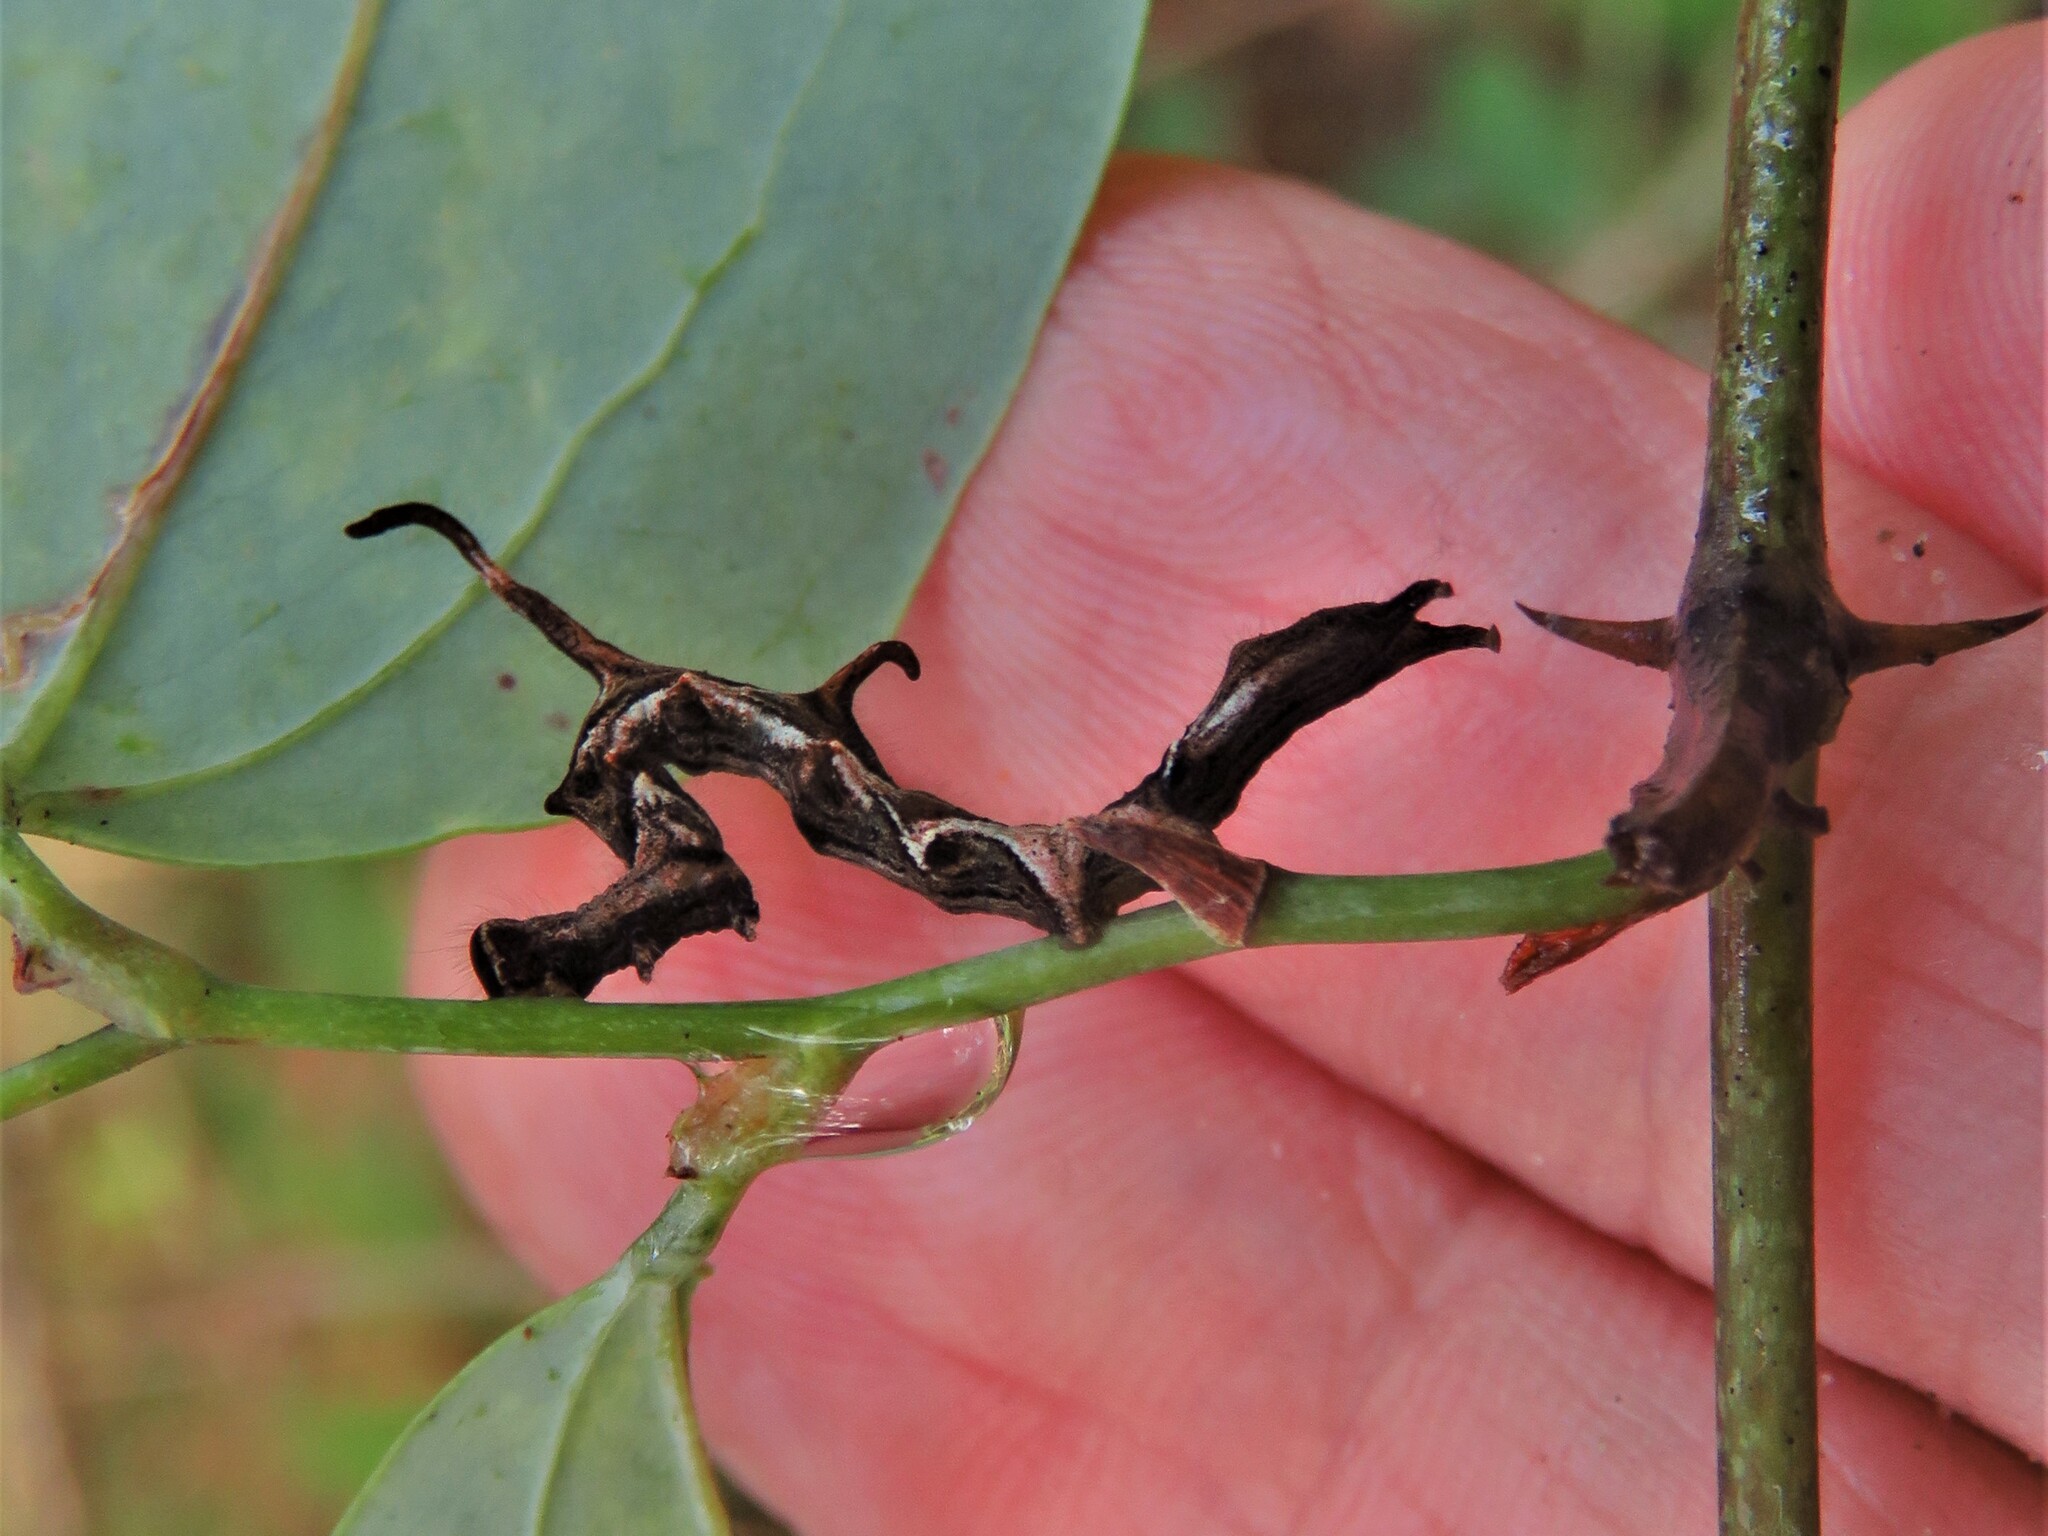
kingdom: Animalia
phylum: Arthropoda
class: Insecta
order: Lepidoptera
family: Erebidae
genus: Phyprosopus
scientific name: Phyprosopus callitrichoides
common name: Curved-lined owlet
